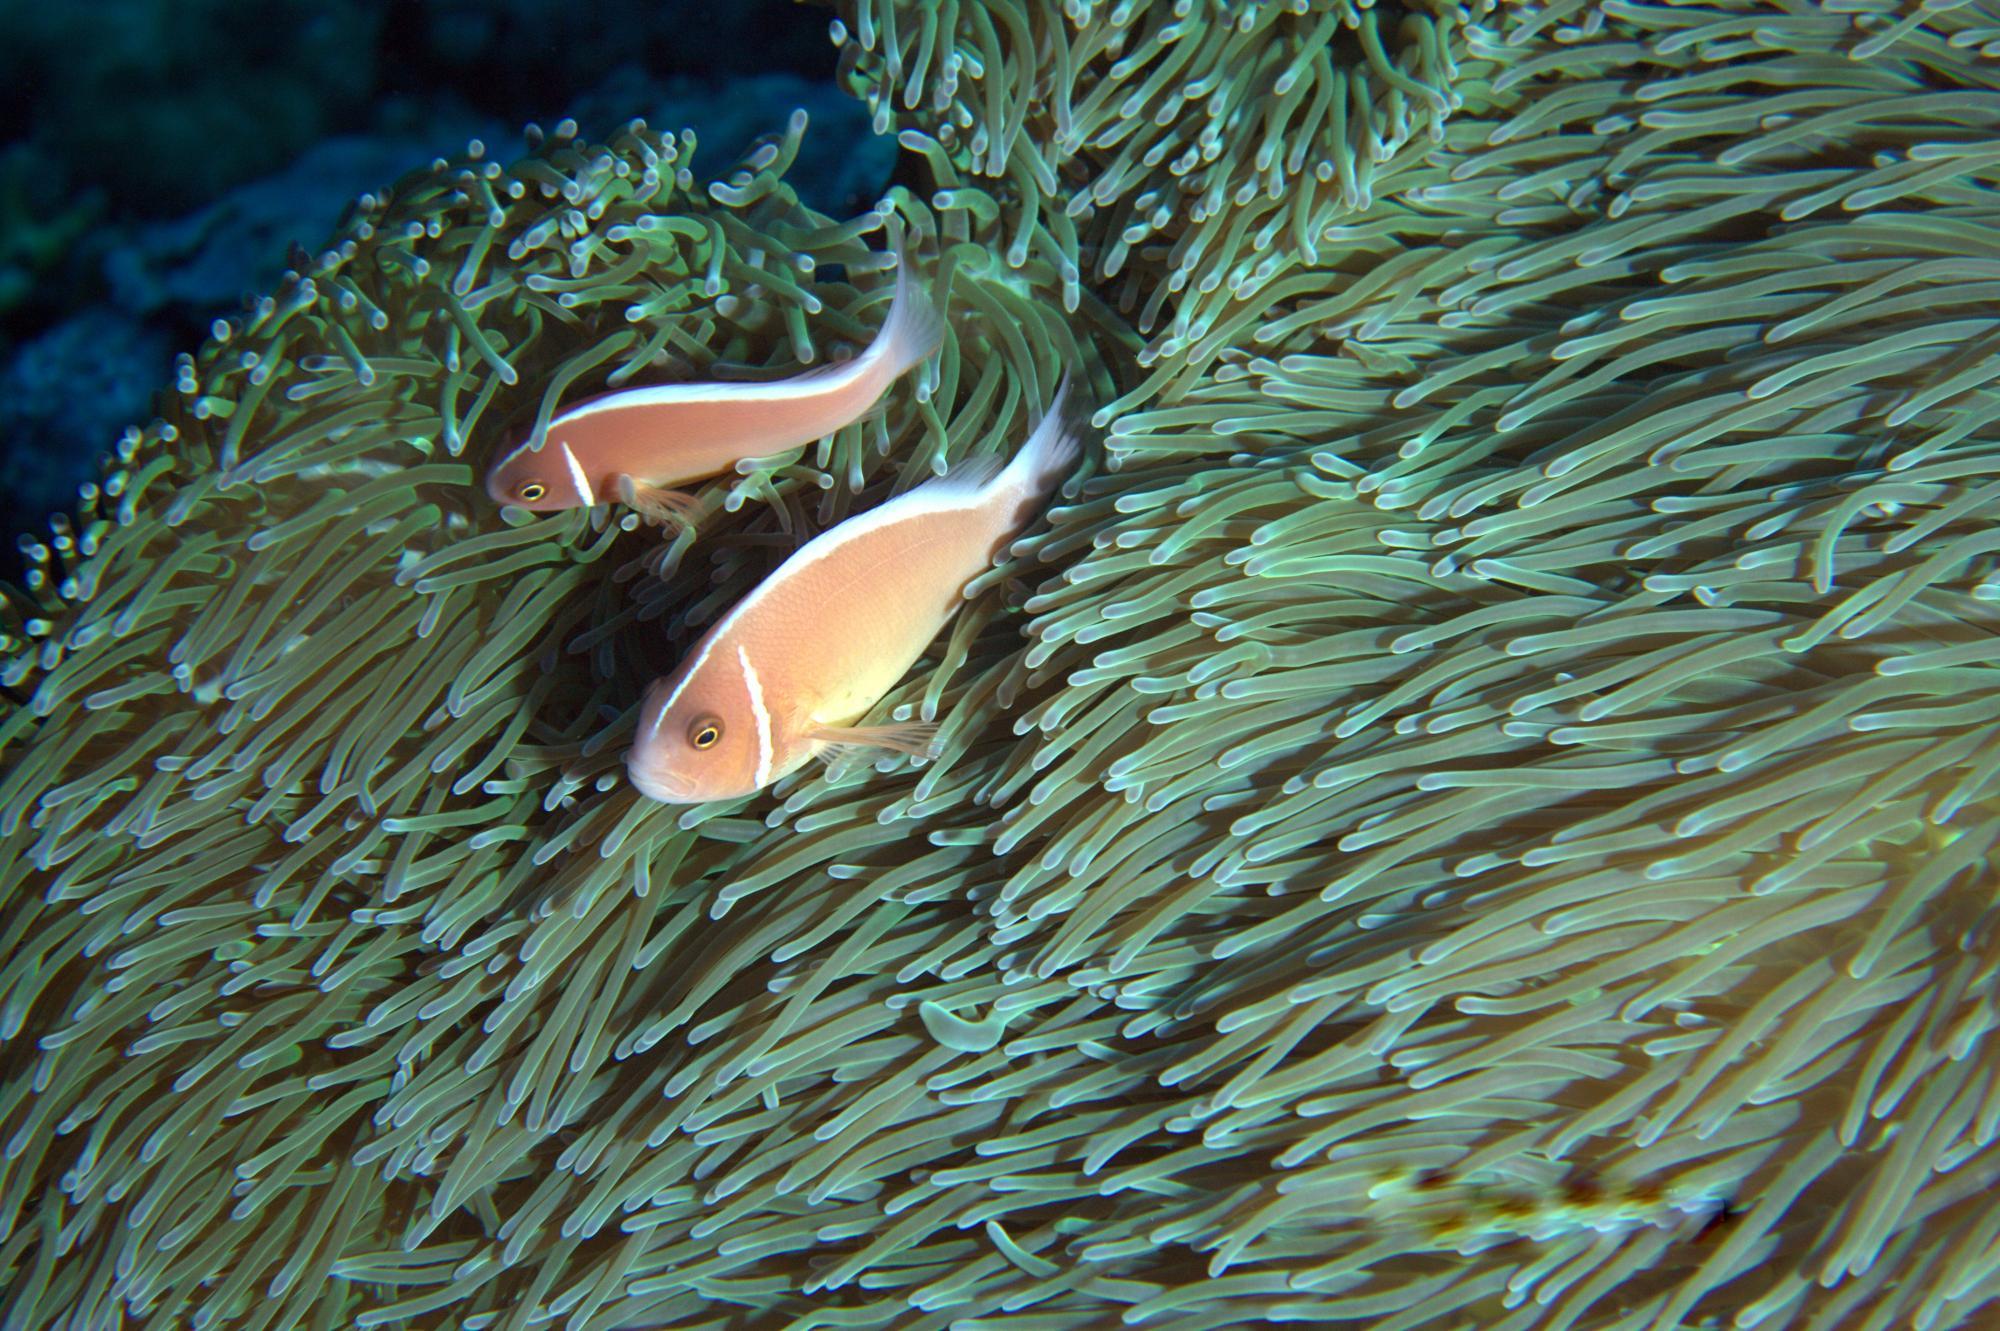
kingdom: Animalia
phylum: Chordata
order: Perciformes
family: Pomacentridae
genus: Amphiprion
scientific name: Amphiprion perideraion
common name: Pink anemonefish
